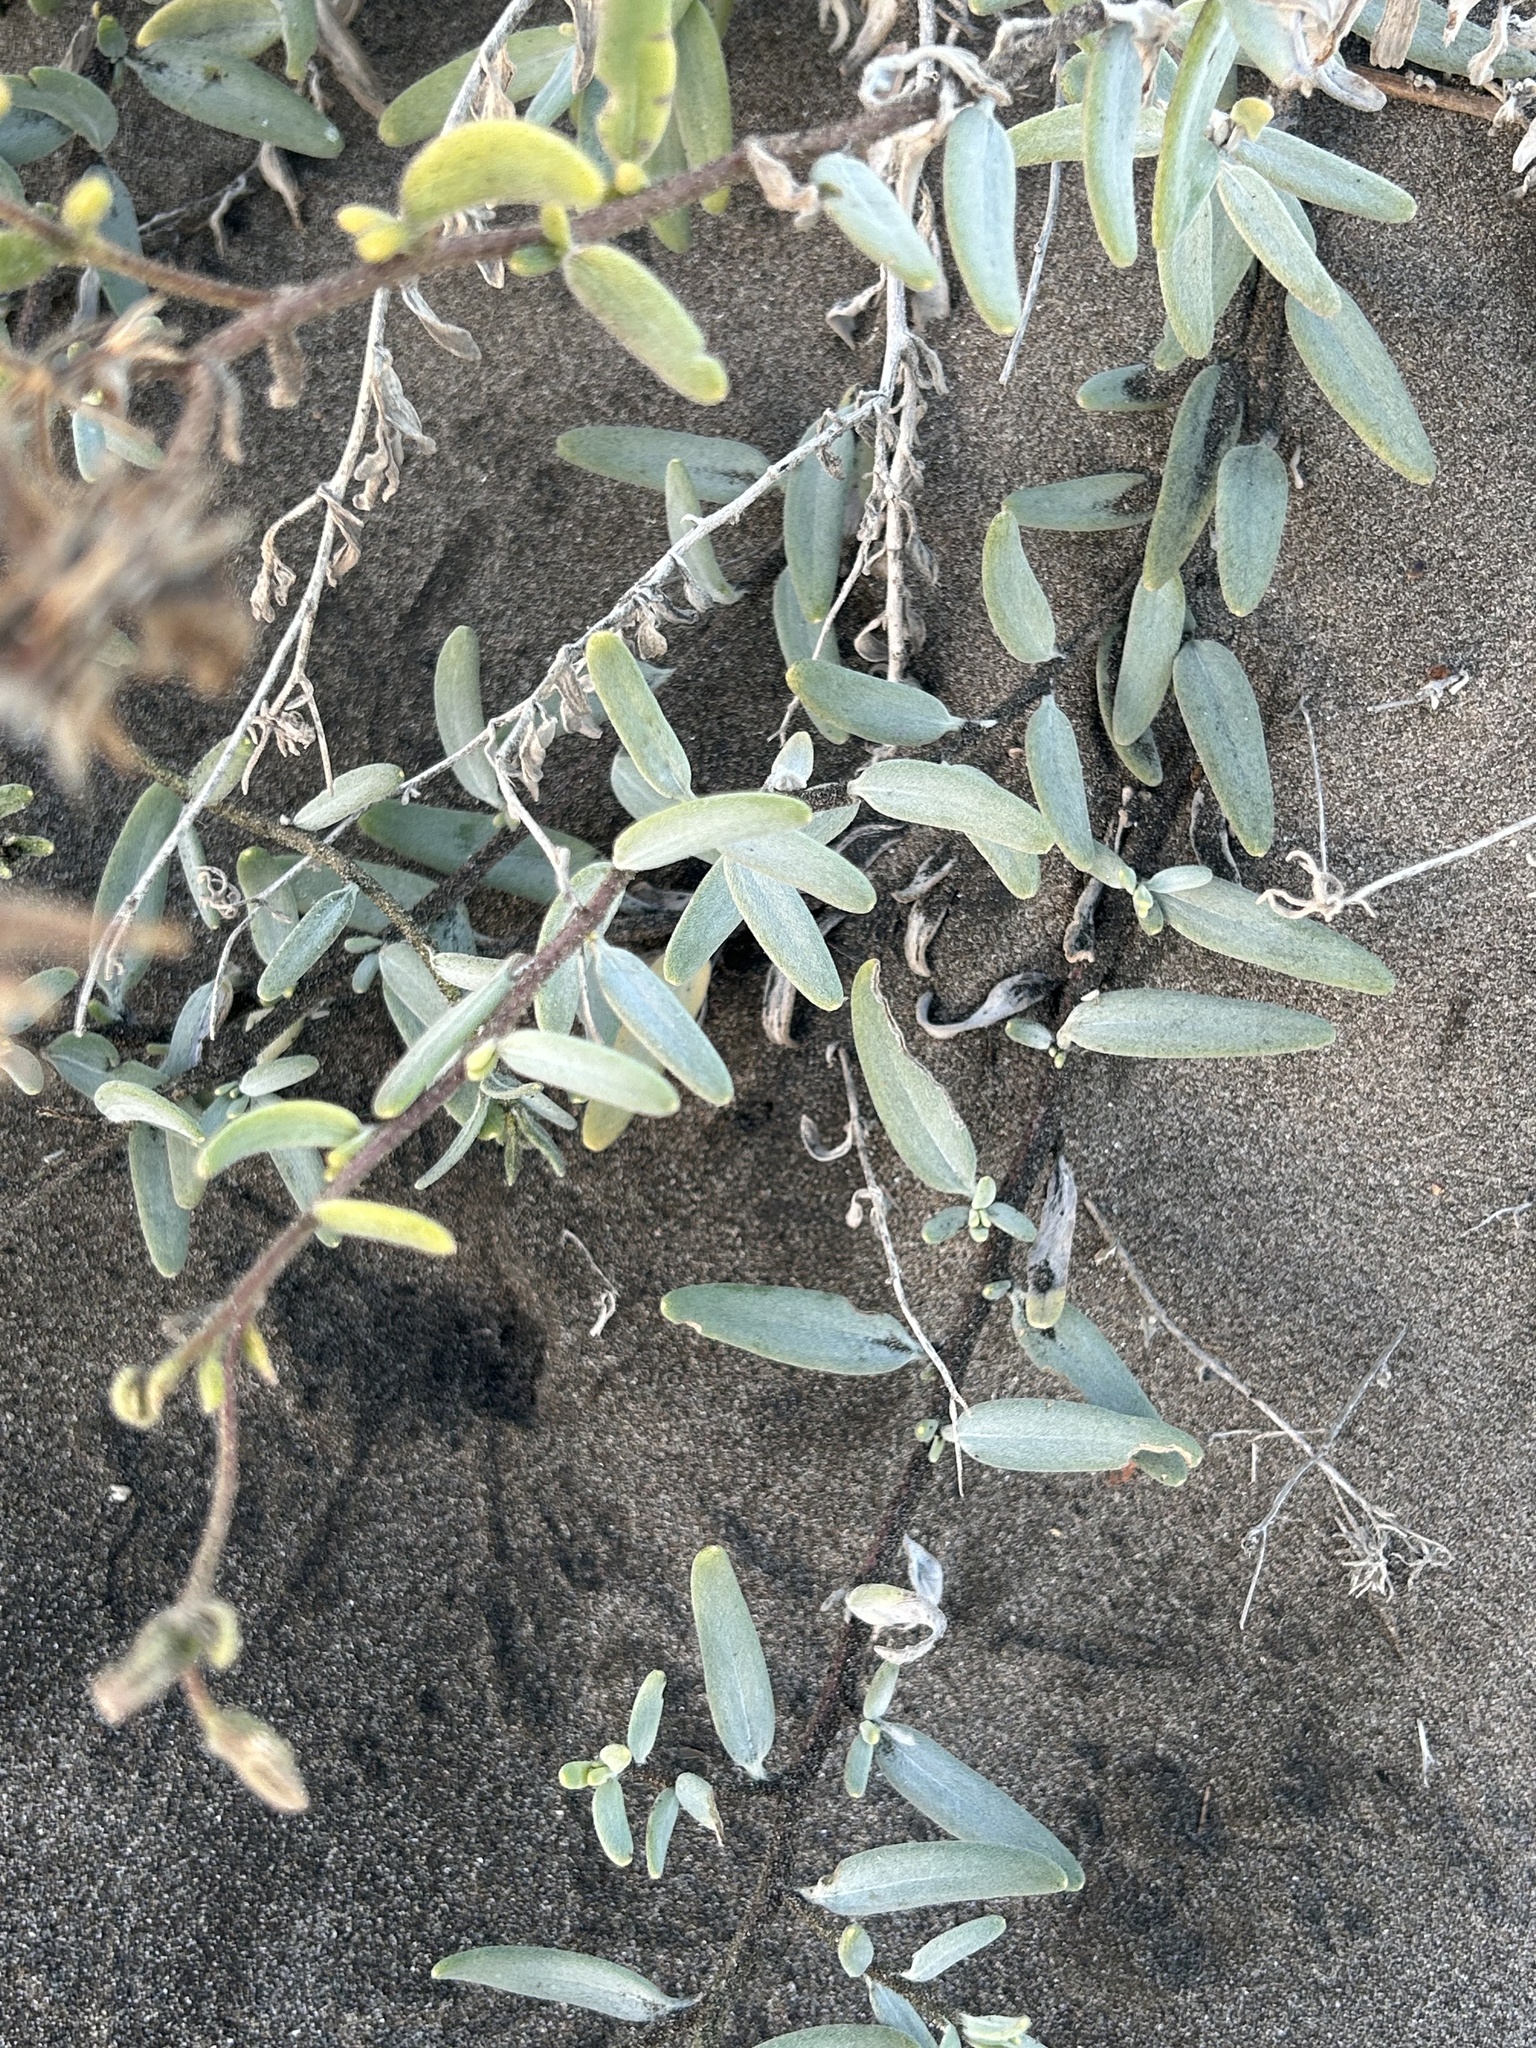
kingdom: Plantae
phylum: Tracheophyta
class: Magnoliopsida
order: Asterales
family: Asteraceae
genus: Palafoxia
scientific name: Palafoxia linearis
